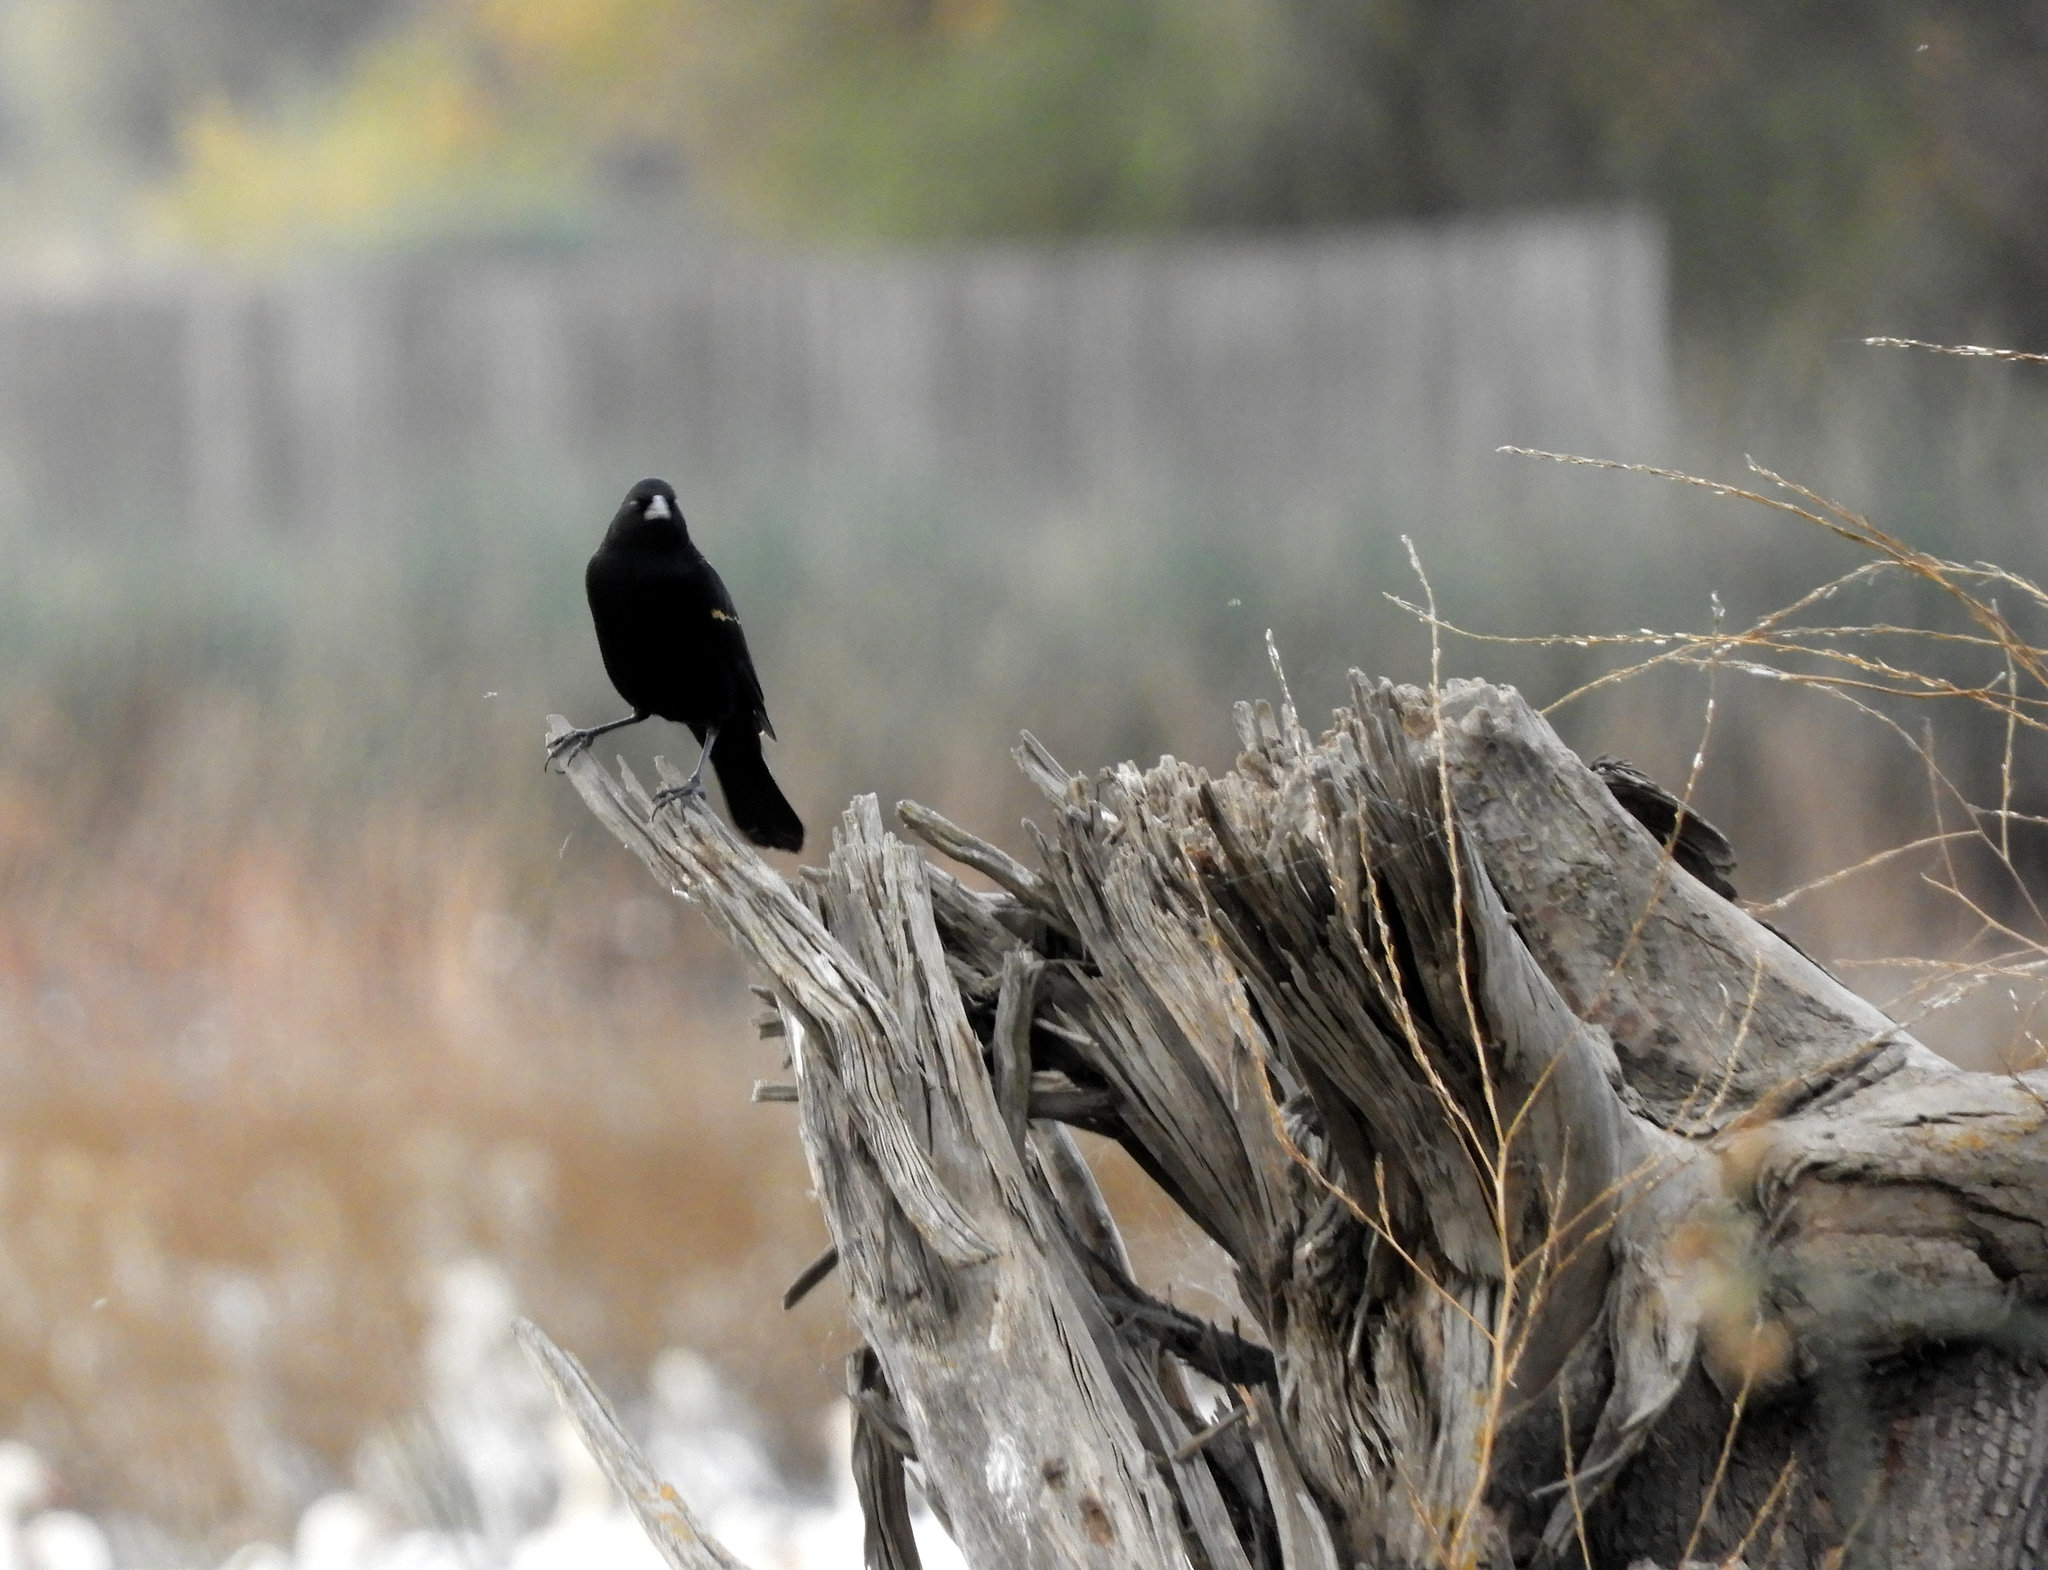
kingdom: Animalia
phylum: Chordata
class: Aves
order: Passeriformes
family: Icteridae
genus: Agelaius
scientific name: Agelaius tricolor
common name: Tricolored blackbird
